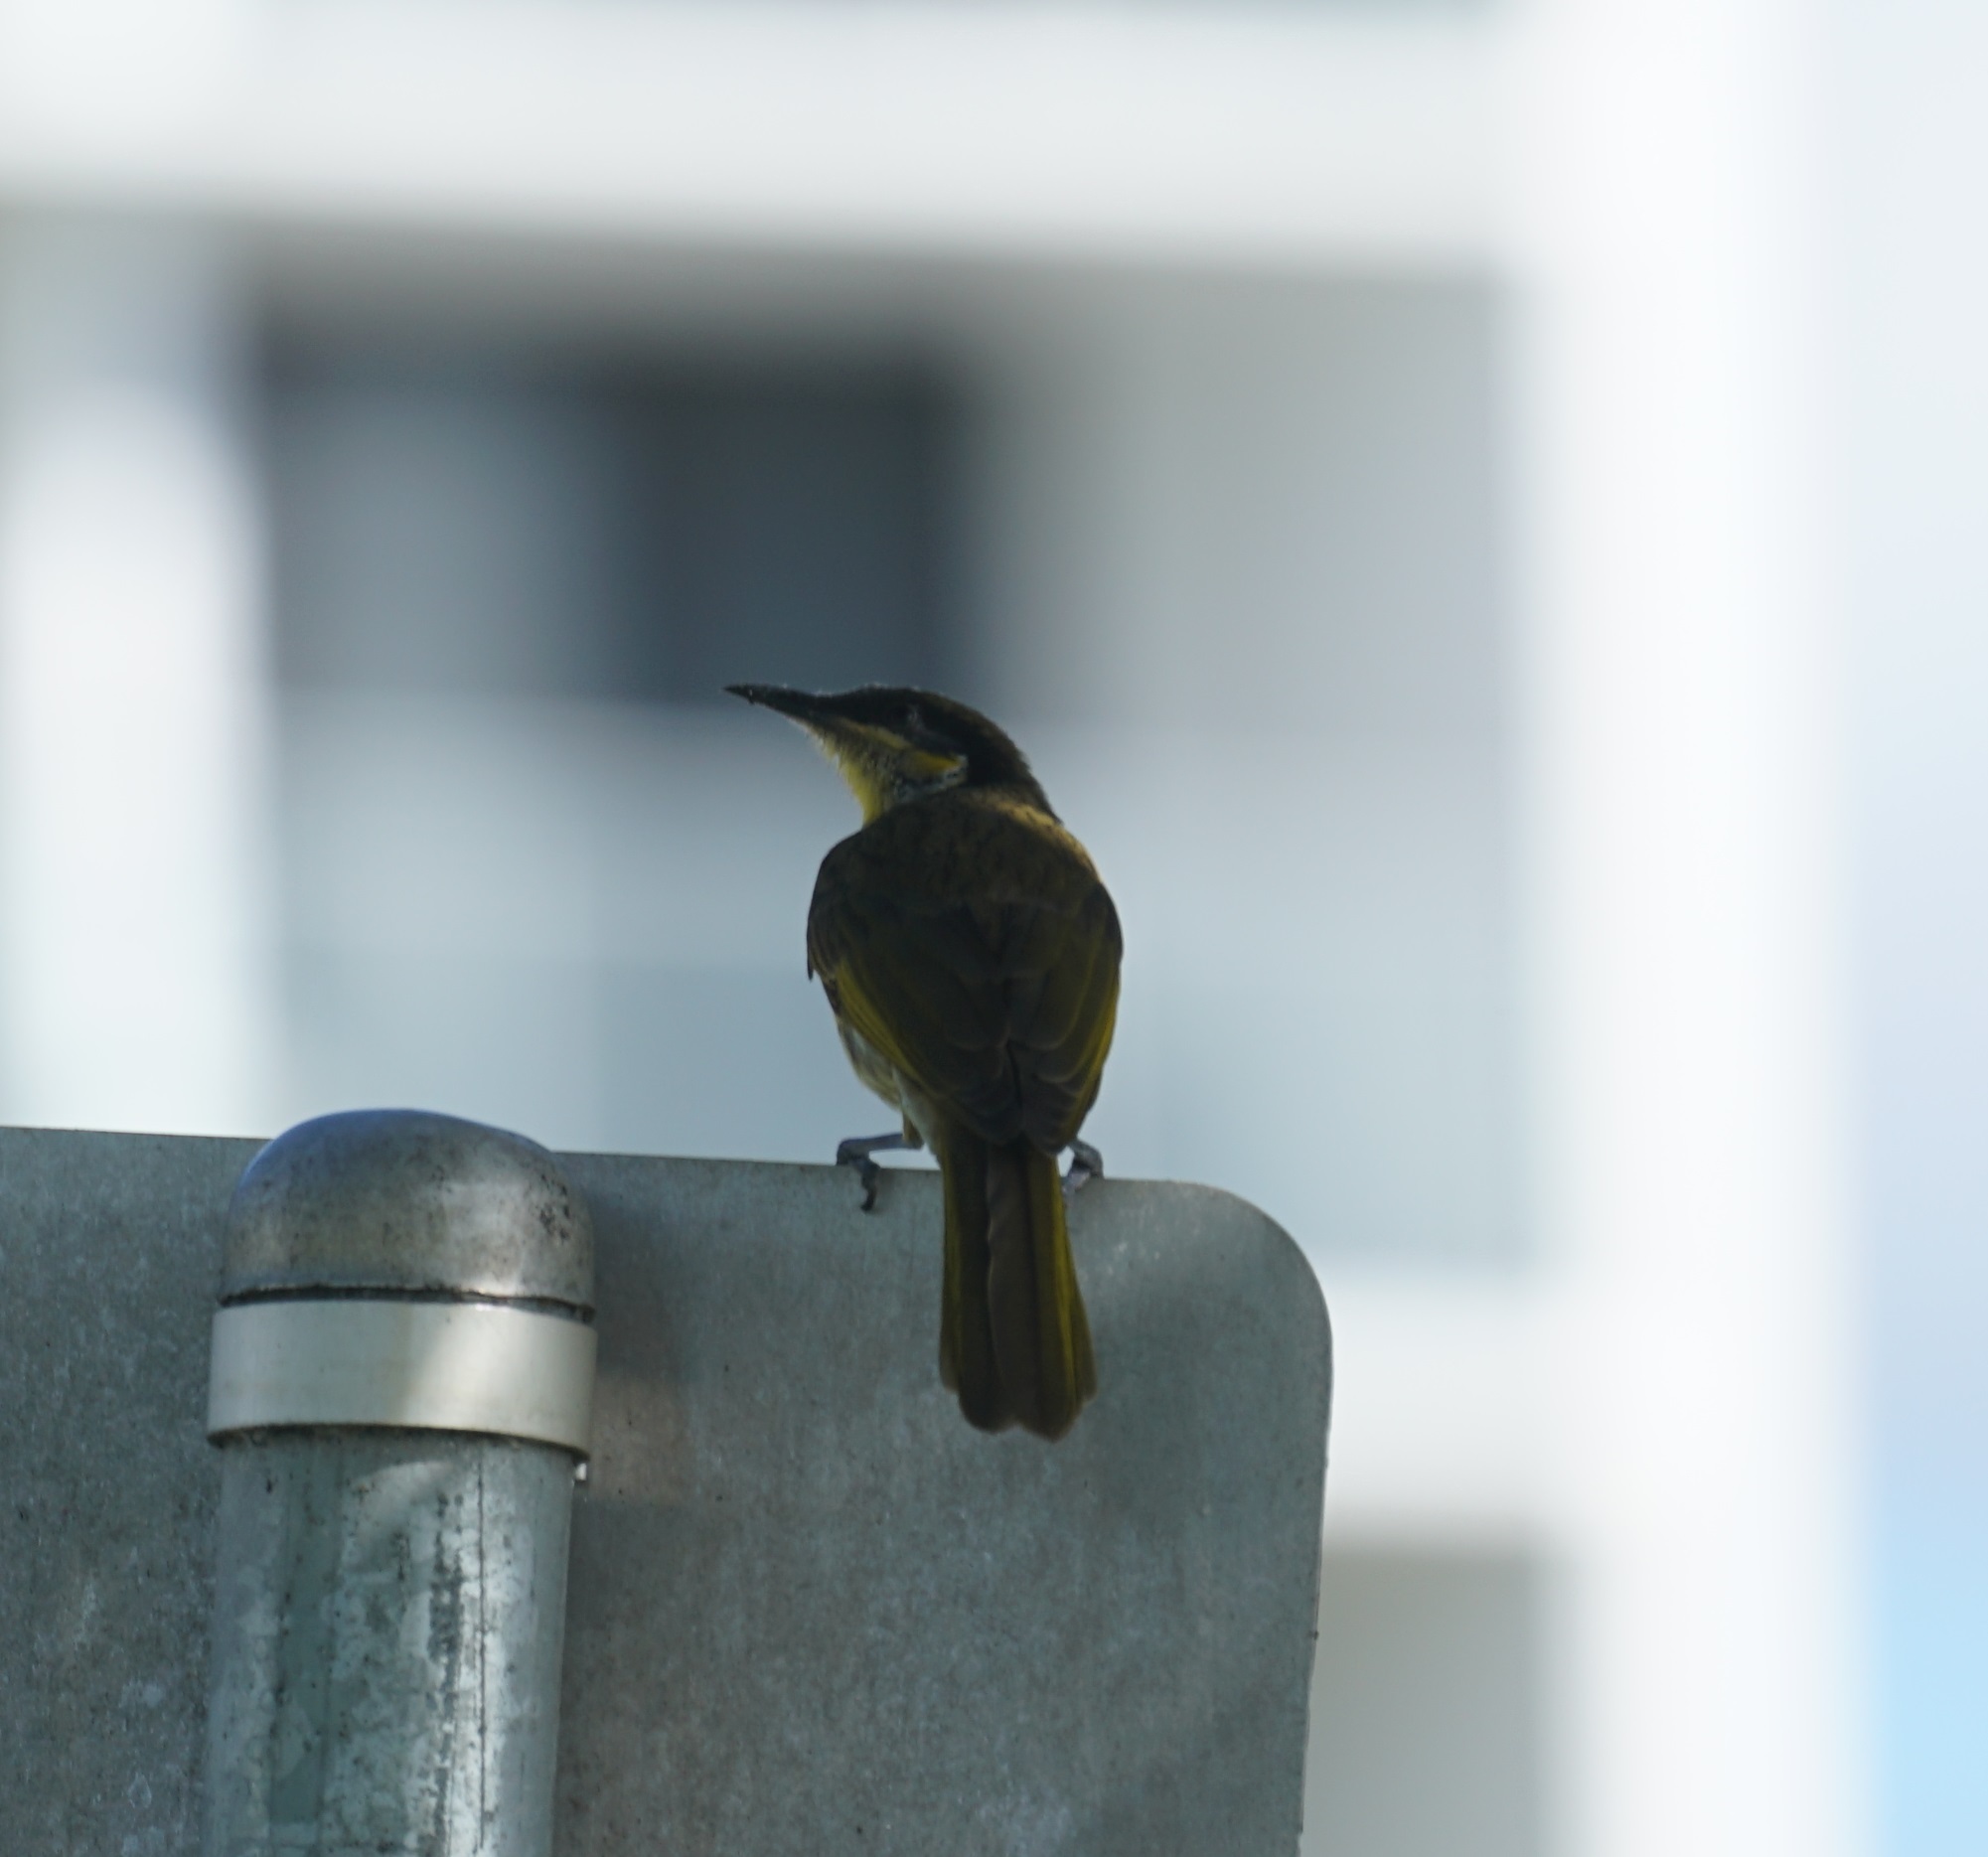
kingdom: Animalia
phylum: Chordata
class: Aves
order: Passeriformes
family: Meliphagidae
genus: Gavicalis
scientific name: Gavicalis versicolor
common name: Varied honeyeater
